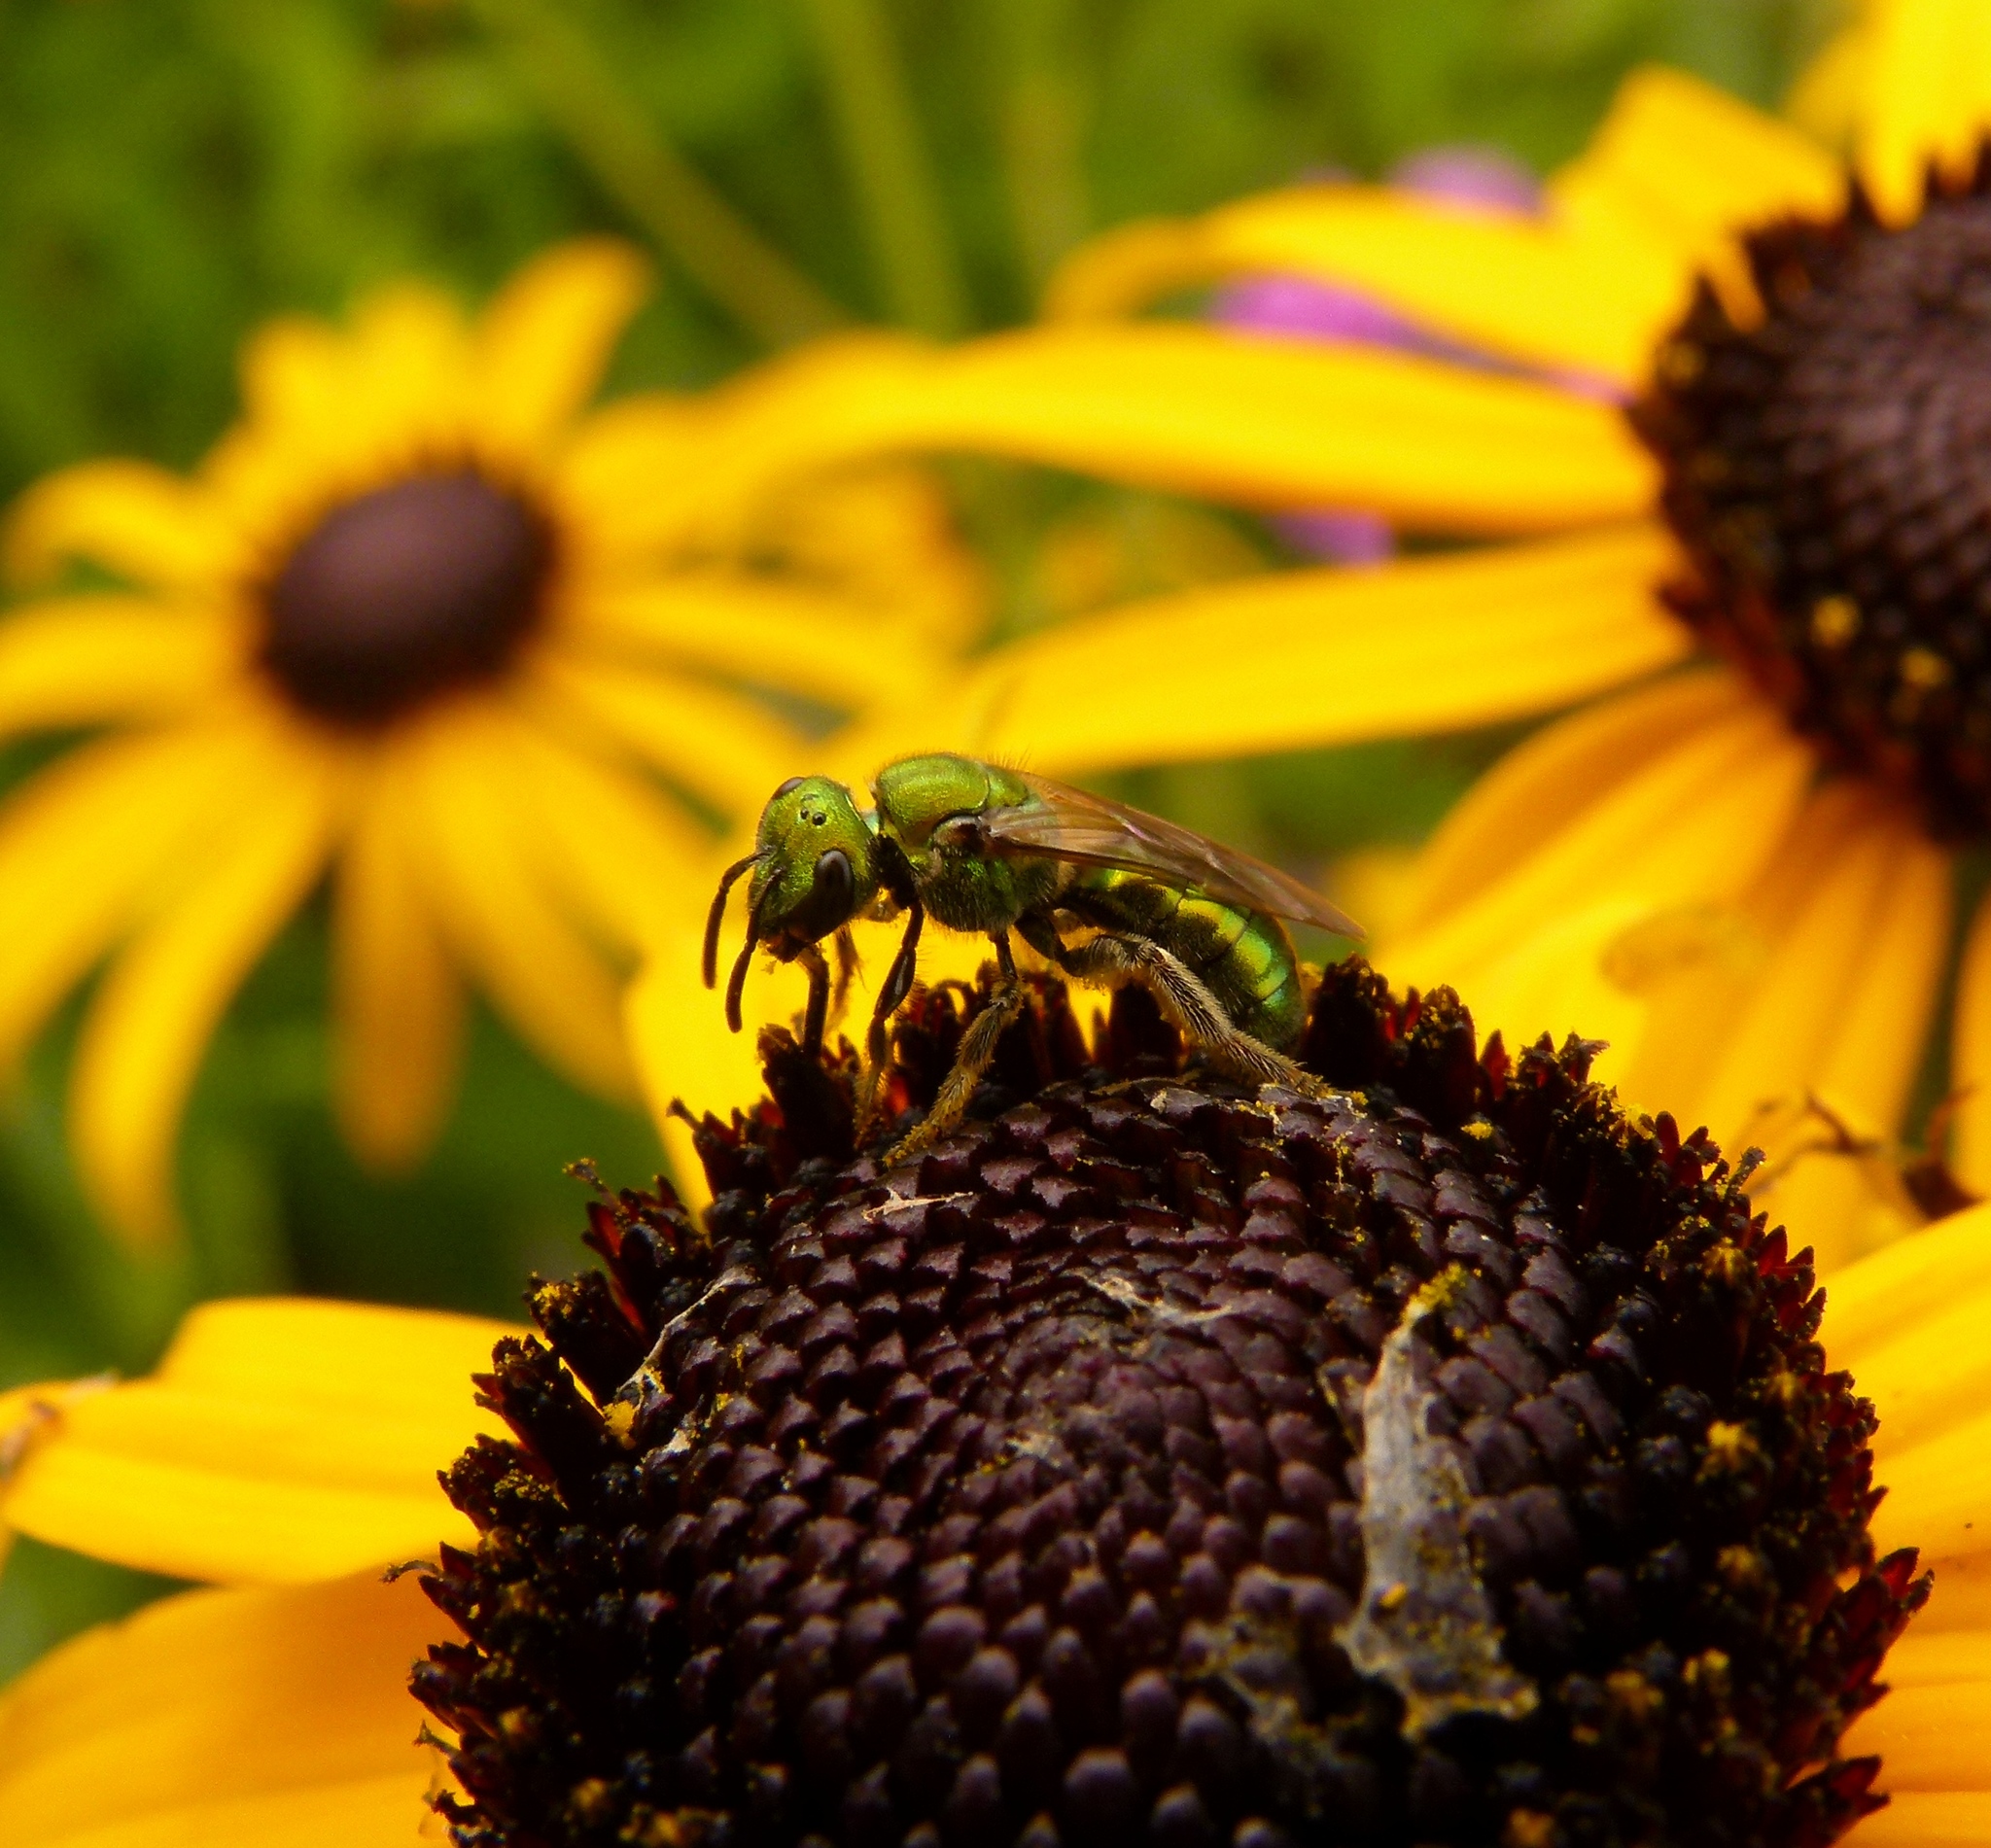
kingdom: Animalia
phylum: Arthropoda
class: Insecta
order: Hymenoptera
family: Halictidae
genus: Augochlora
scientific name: Augochlora pura
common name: Pure green sweat bee
